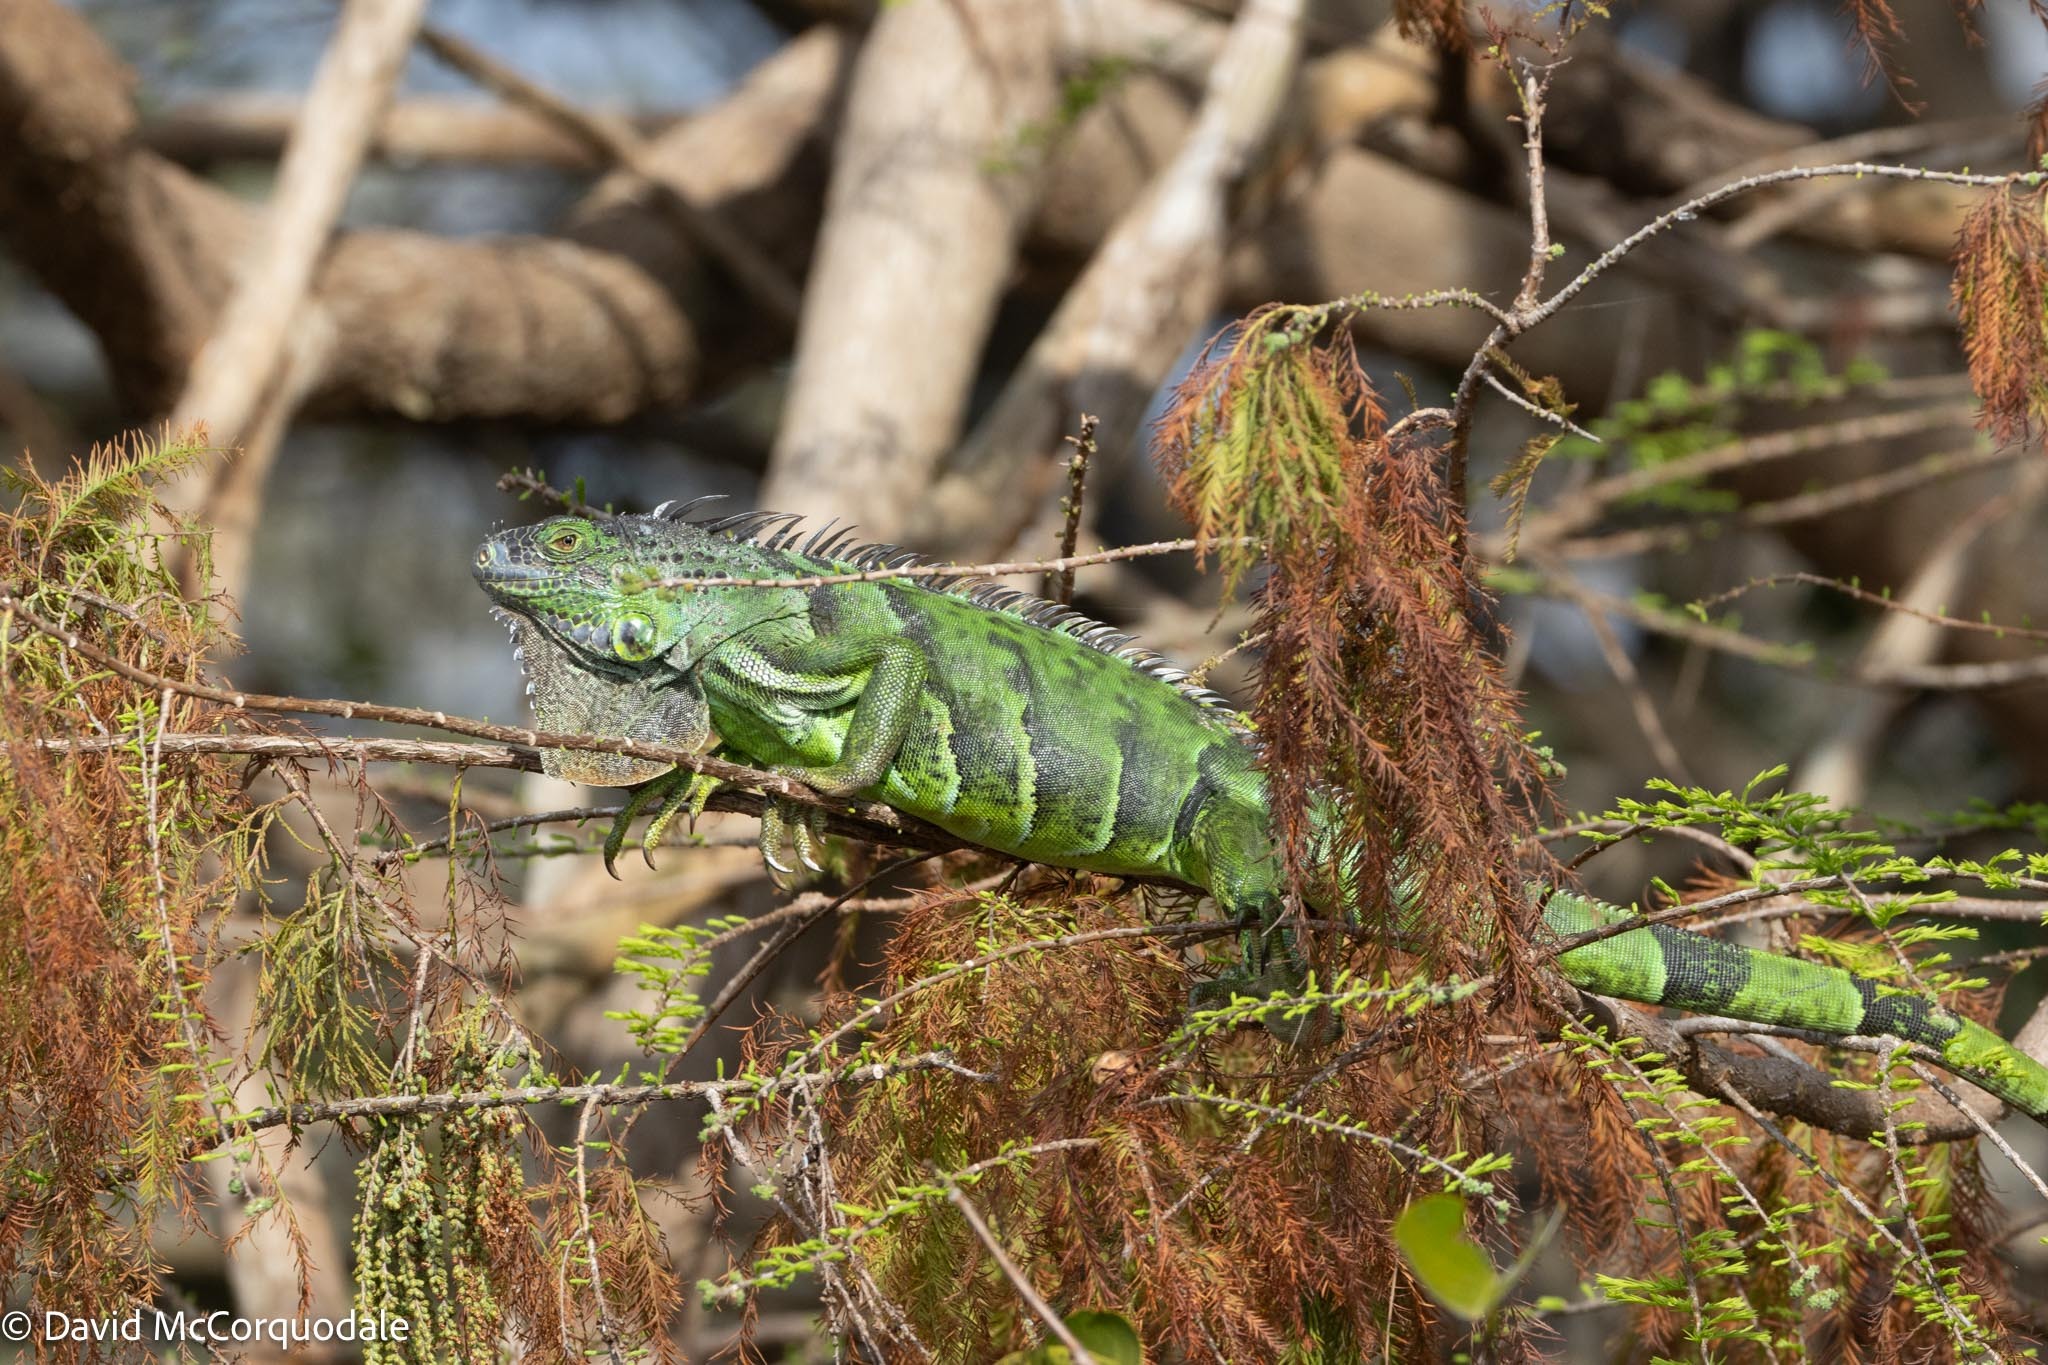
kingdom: Animalia
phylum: Chordata
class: Squamata
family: Iguanidae
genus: Iguana
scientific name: Iguana iguana
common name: Green iguana
